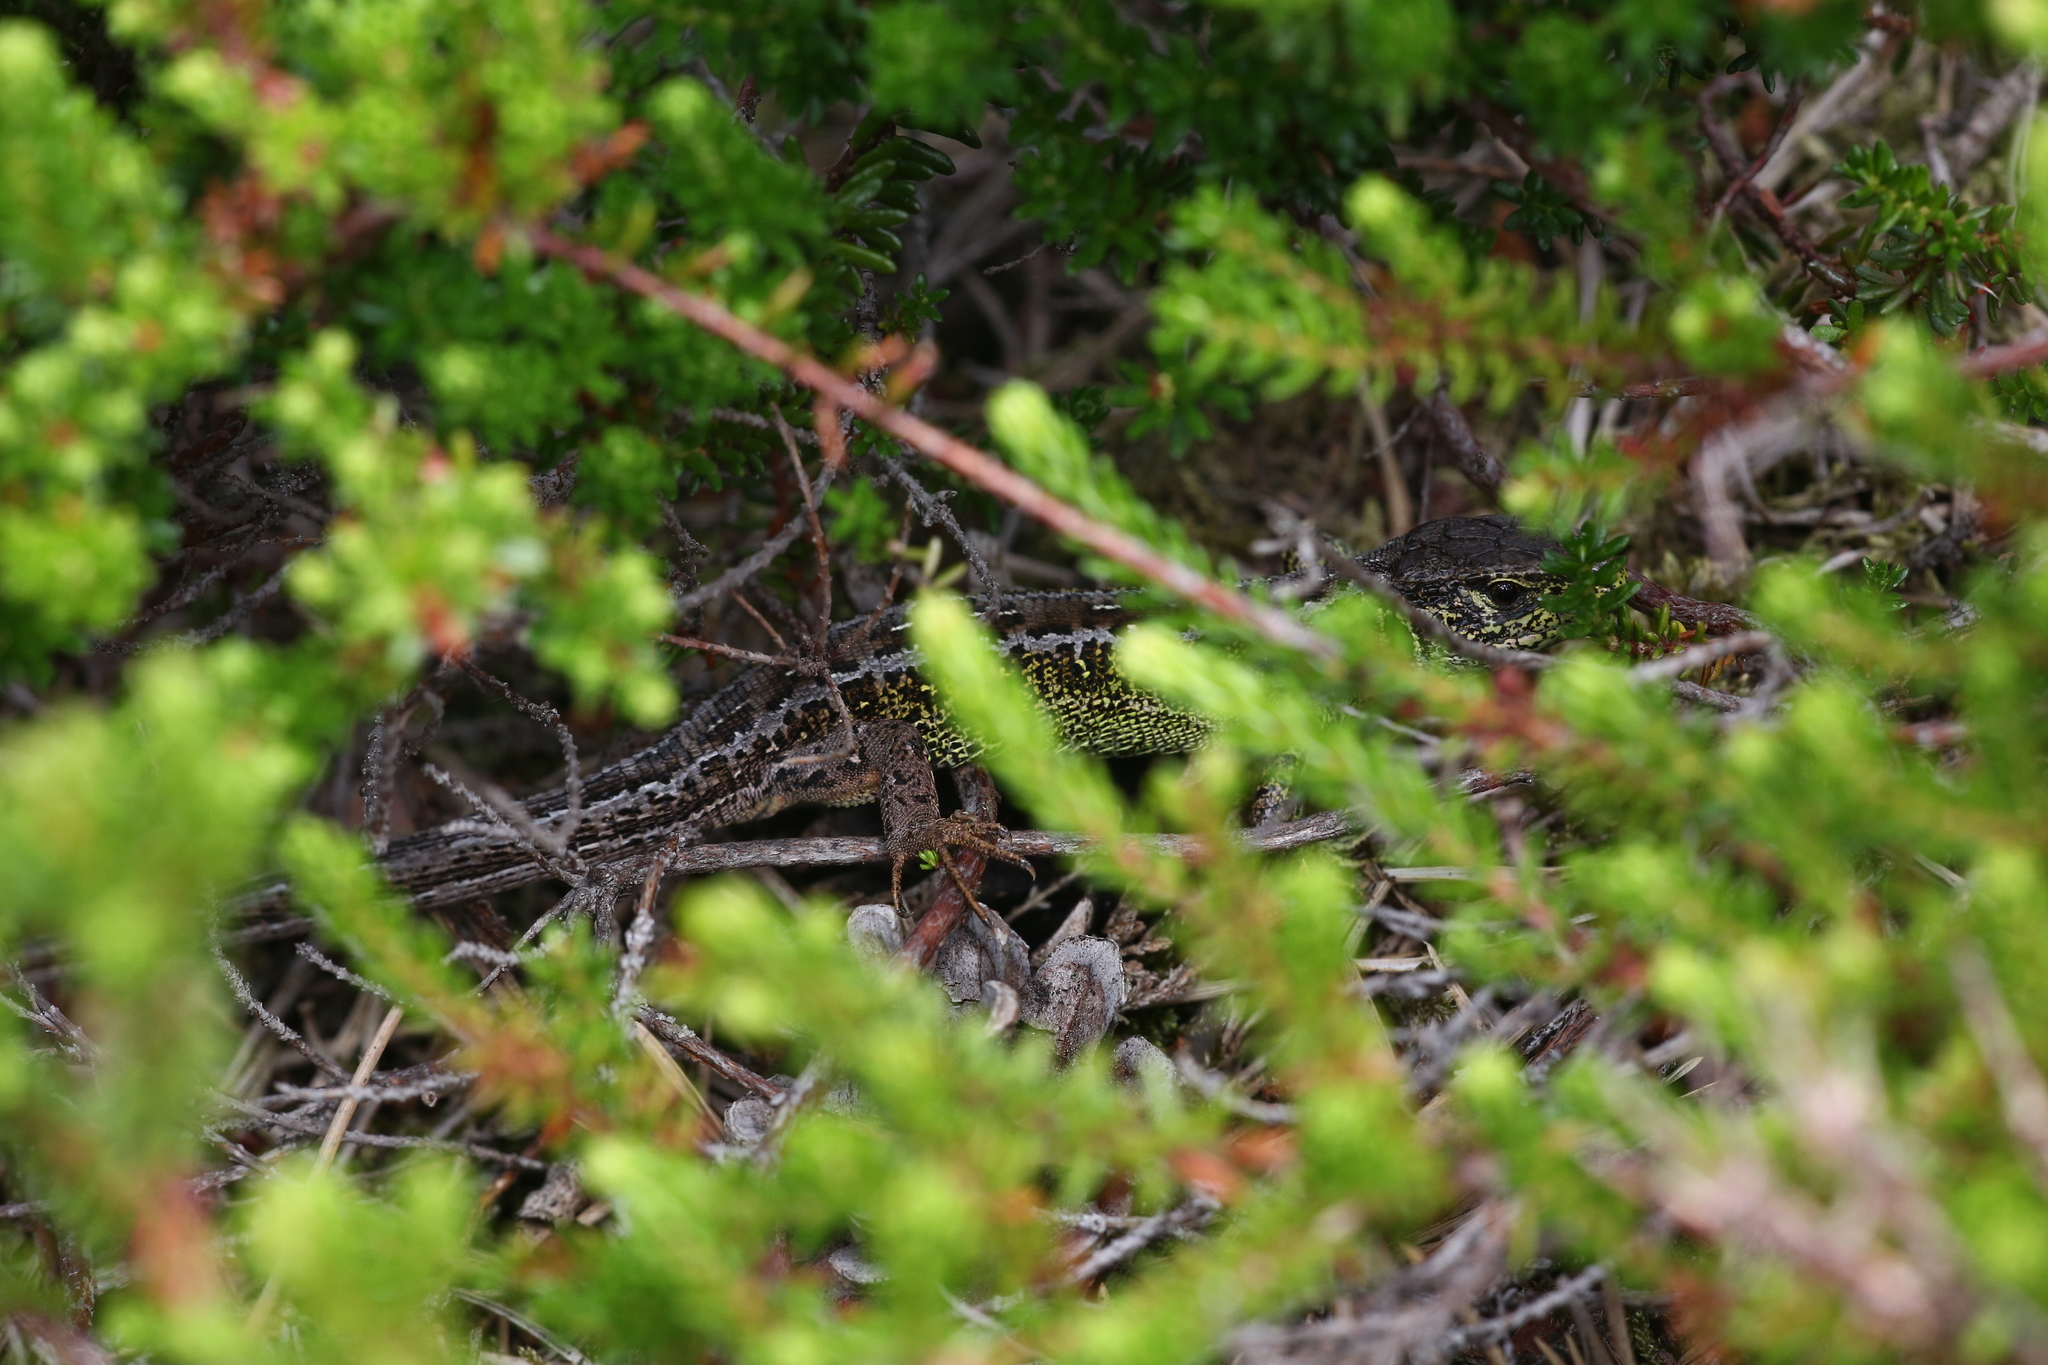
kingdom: Animalia
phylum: Chordata
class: Squamata
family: Lacertidae
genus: Lacerta
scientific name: Lacerta agilis
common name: Sand lizard
